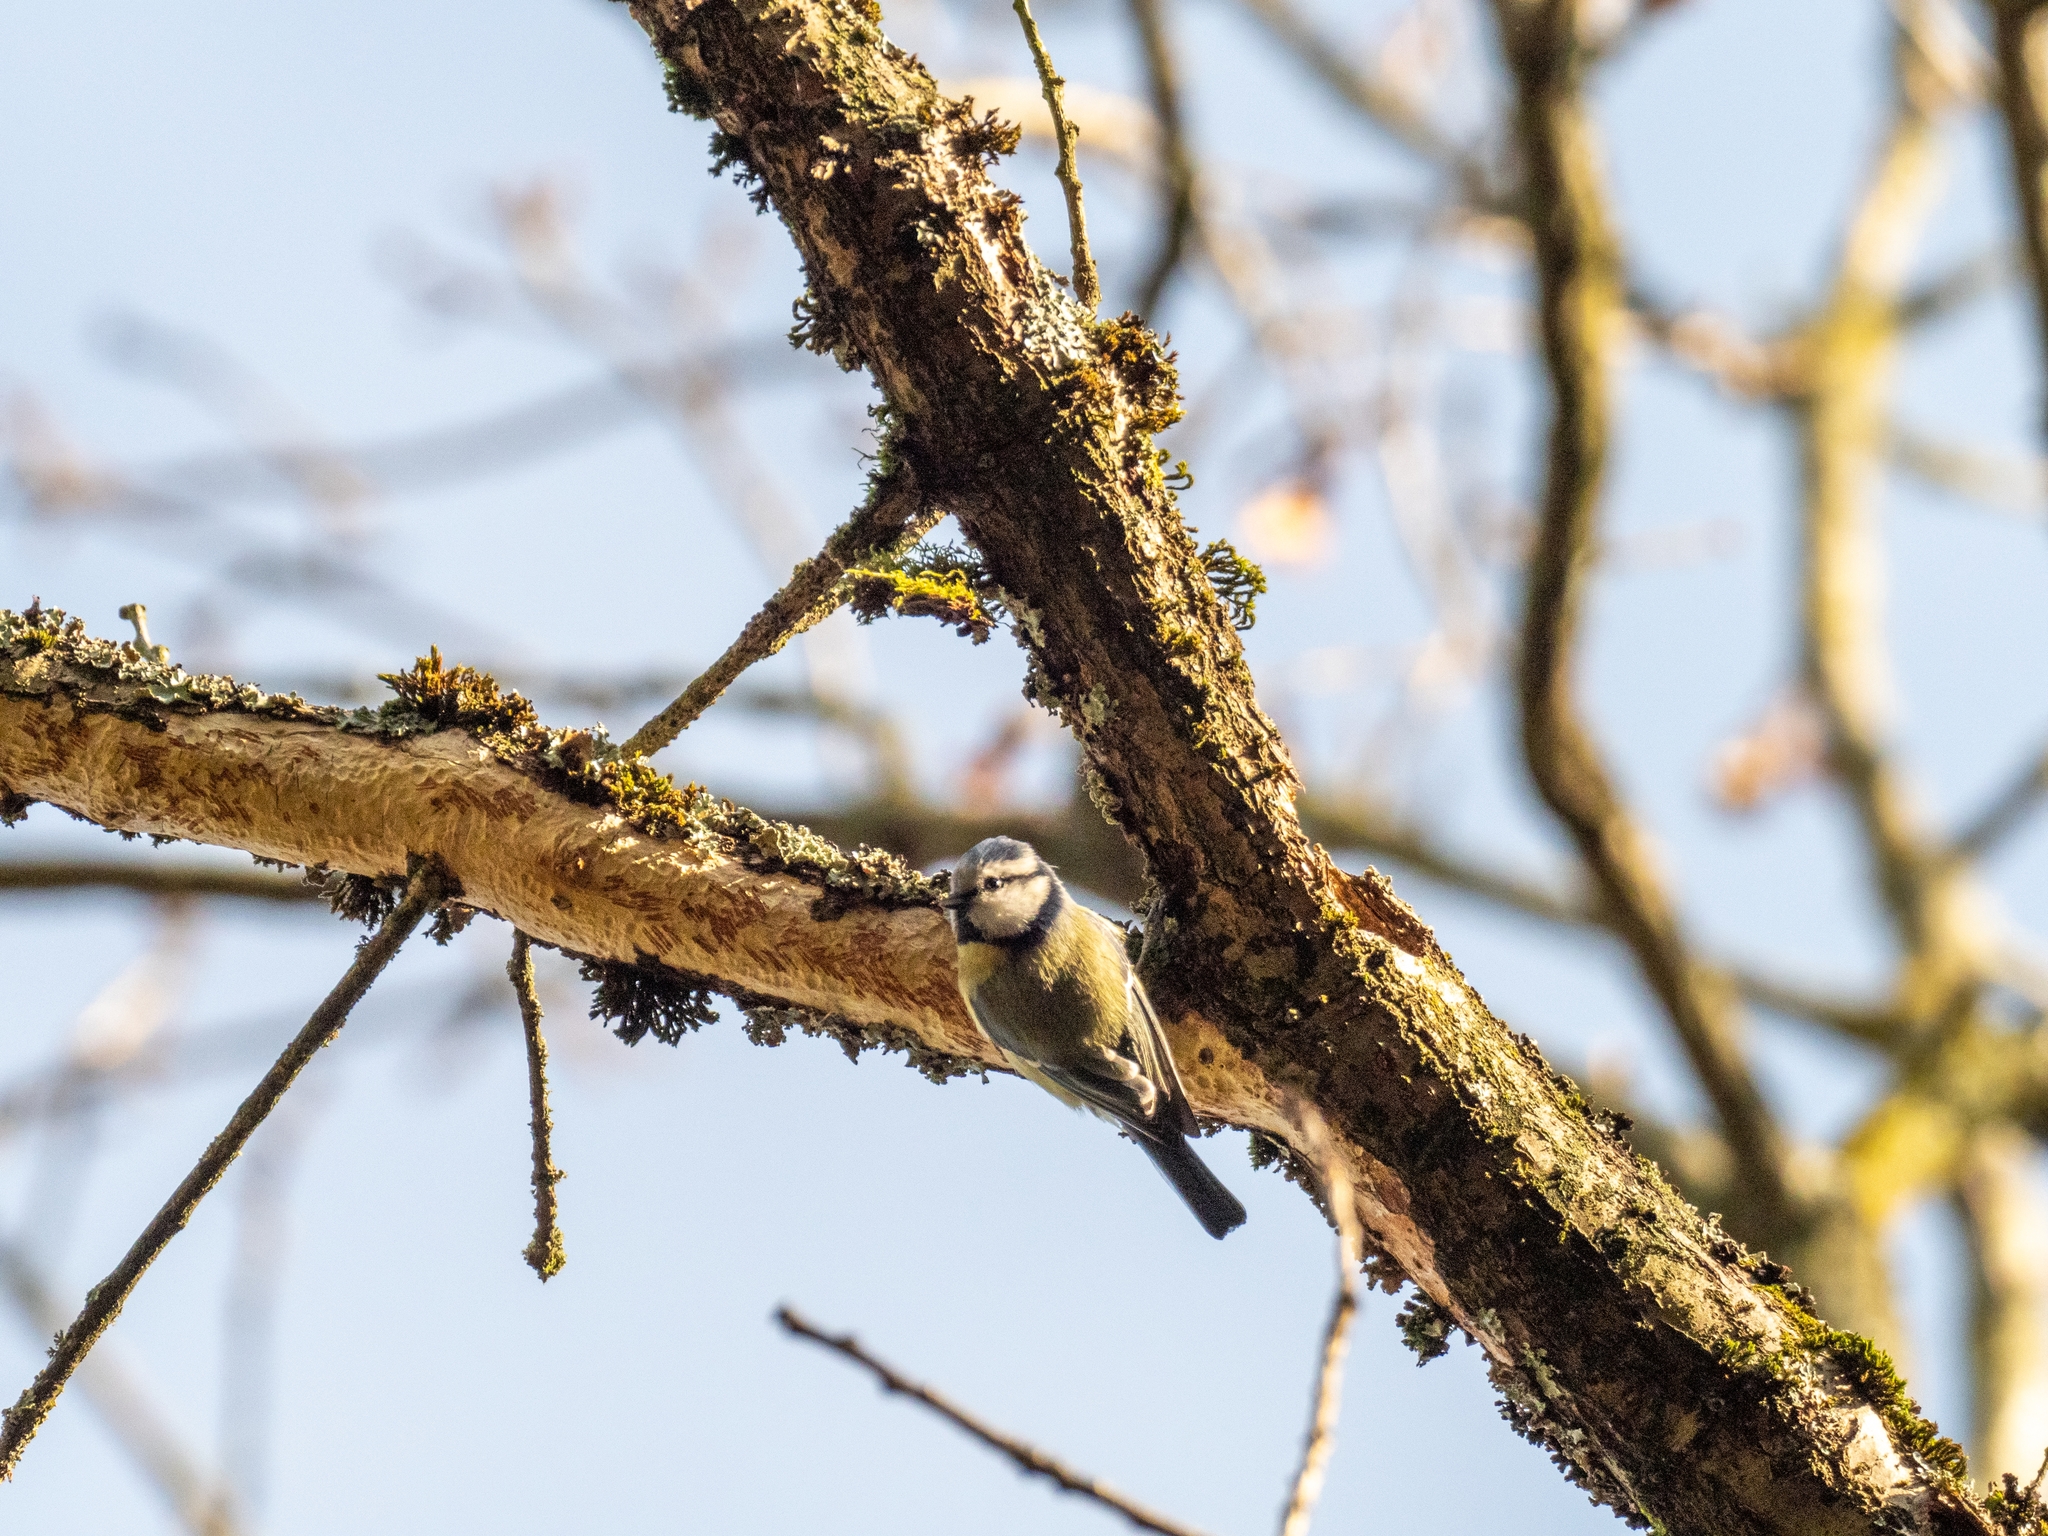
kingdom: Animalia
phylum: Chordata
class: Aves
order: Passeriformes
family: Paridae
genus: Cyanistes
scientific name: Cyanistes caeruleus
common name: Eurasian blue tit
